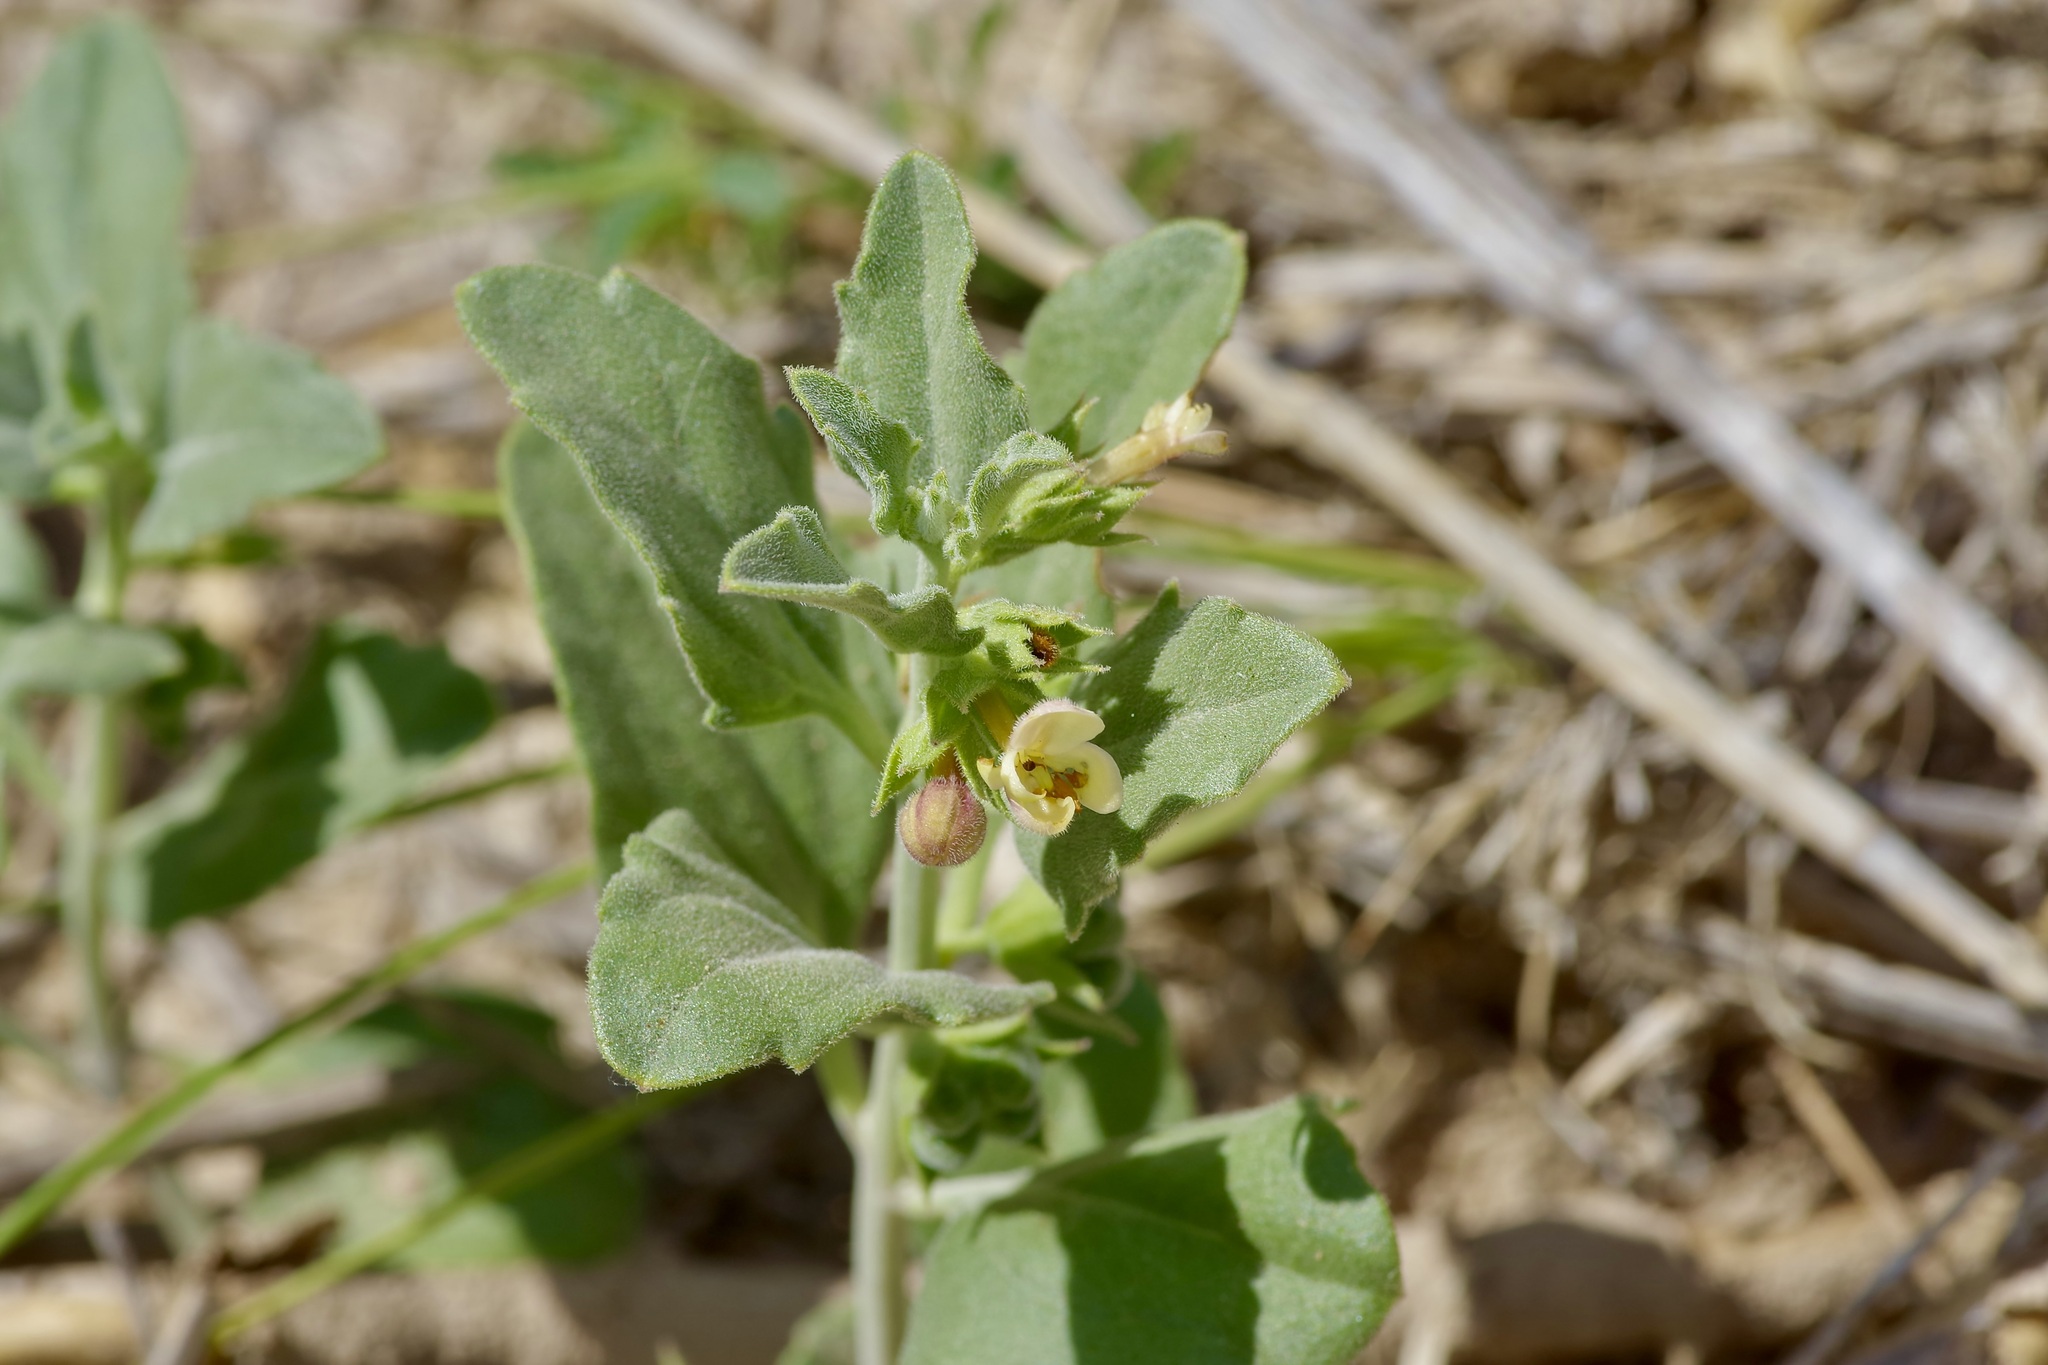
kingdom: Plantae
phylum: Tracheophyta
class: Magnoliopsida
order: Lamiales
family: Lamiaceae
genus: Tetraclea
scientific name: Tetraclea coulteri
